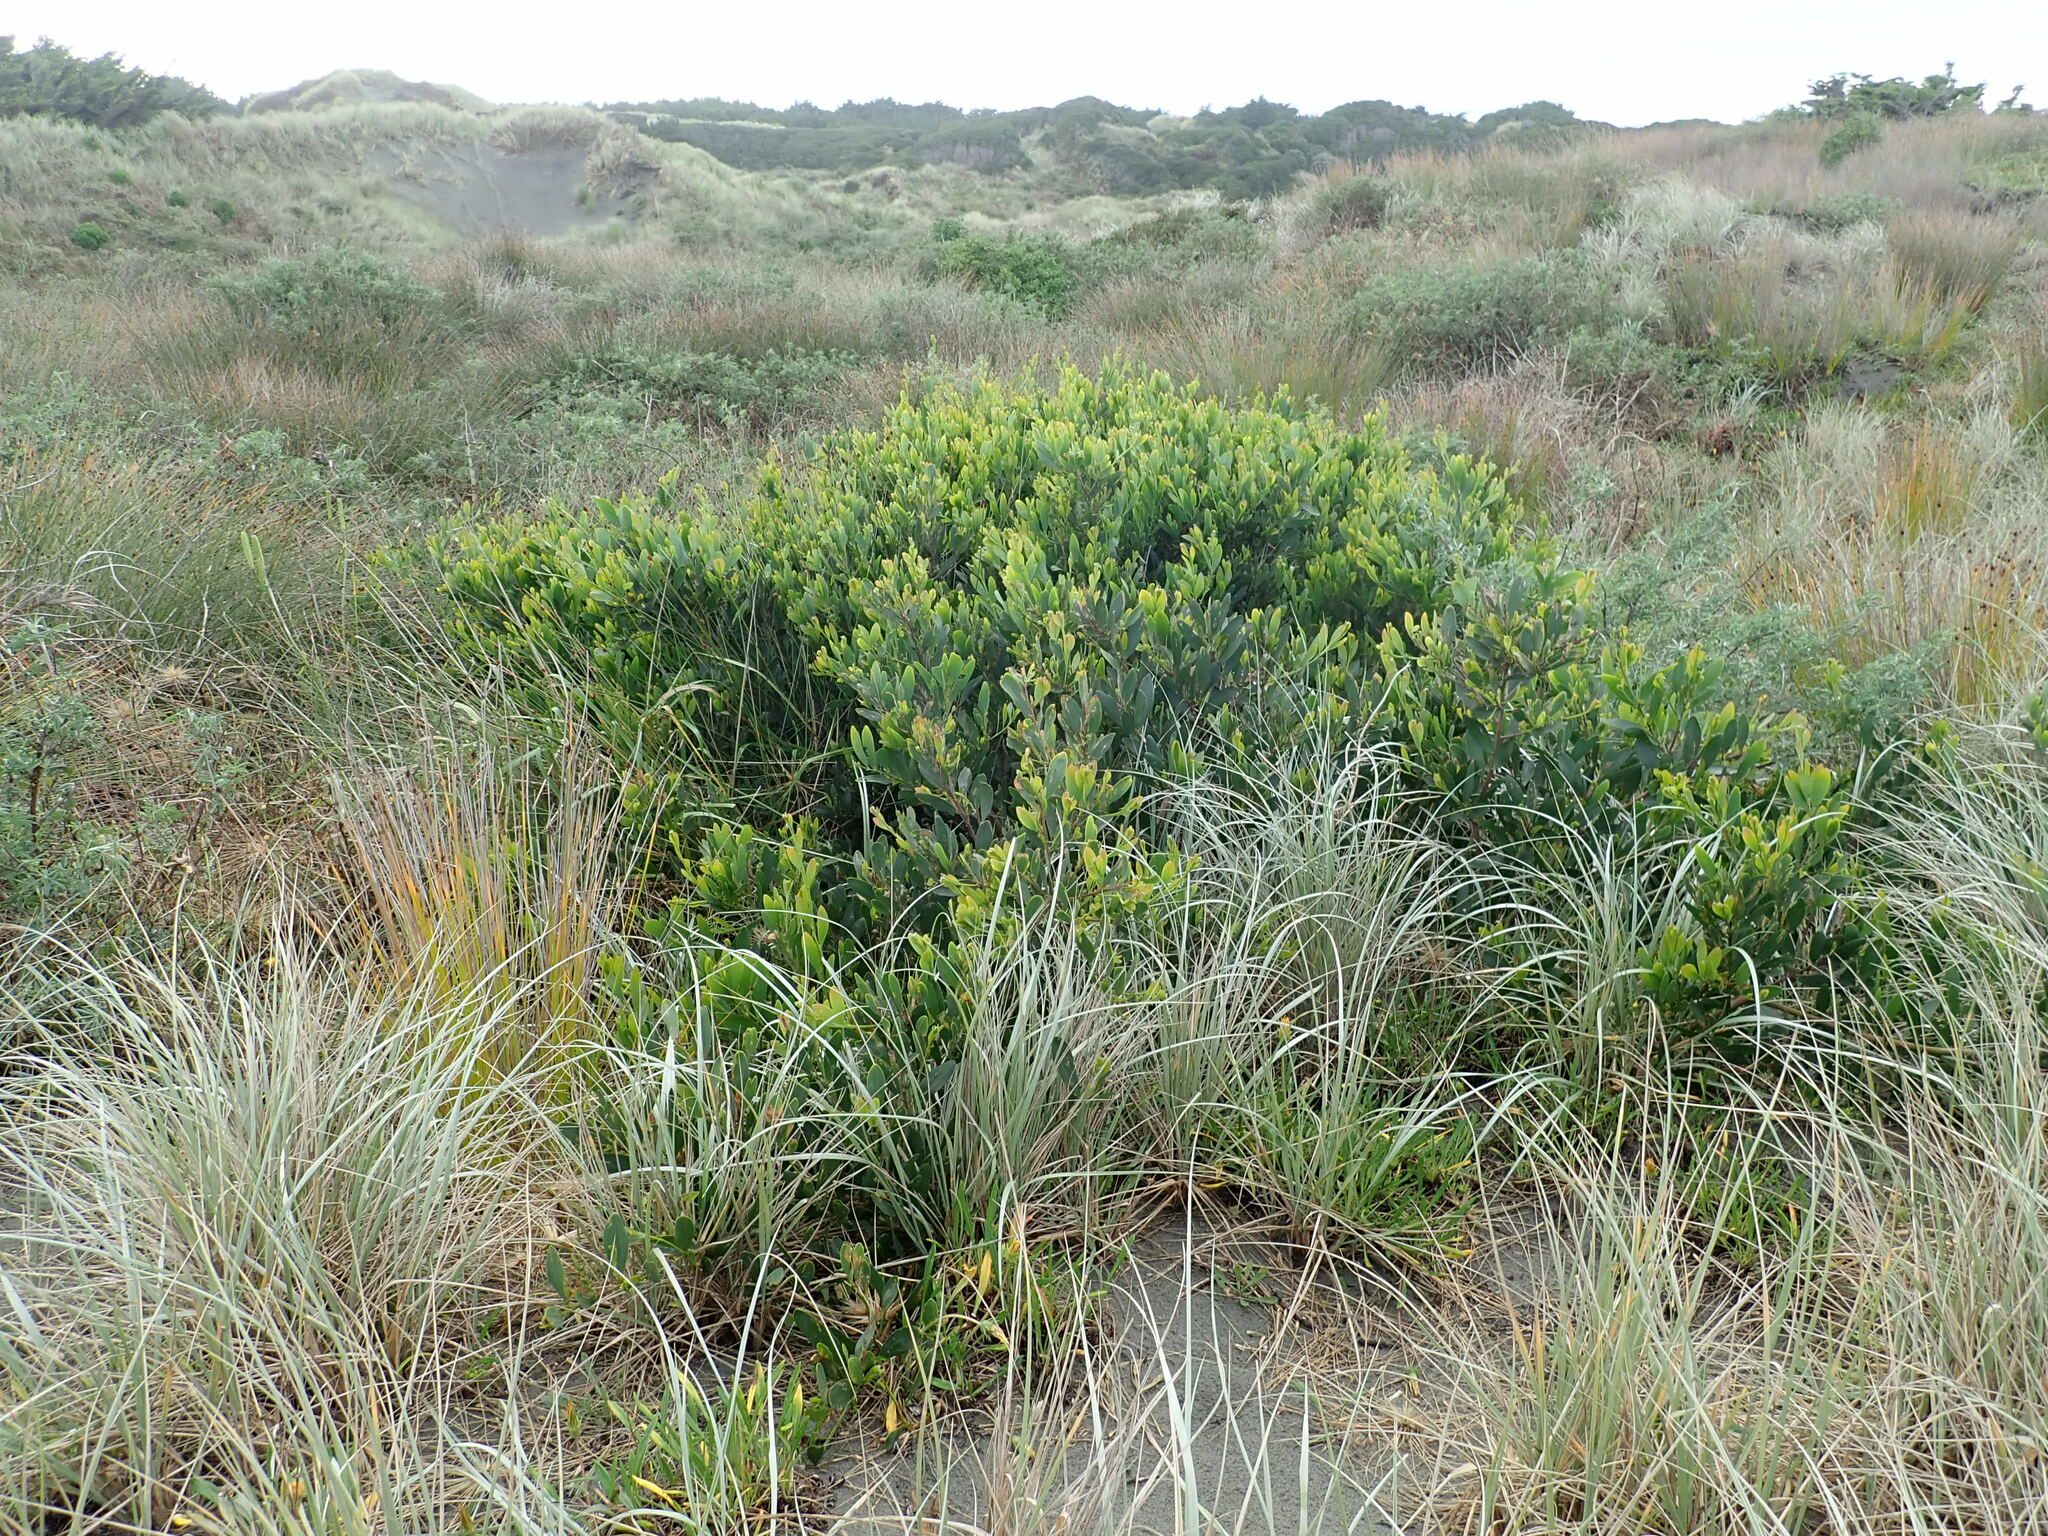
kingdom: Plantae
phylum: Tracheophyta
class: Magnoliopsida
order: Fabales
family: Fabaceae
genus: Acacia
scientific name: Acacia longifolia
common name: Sydney golden wattle
